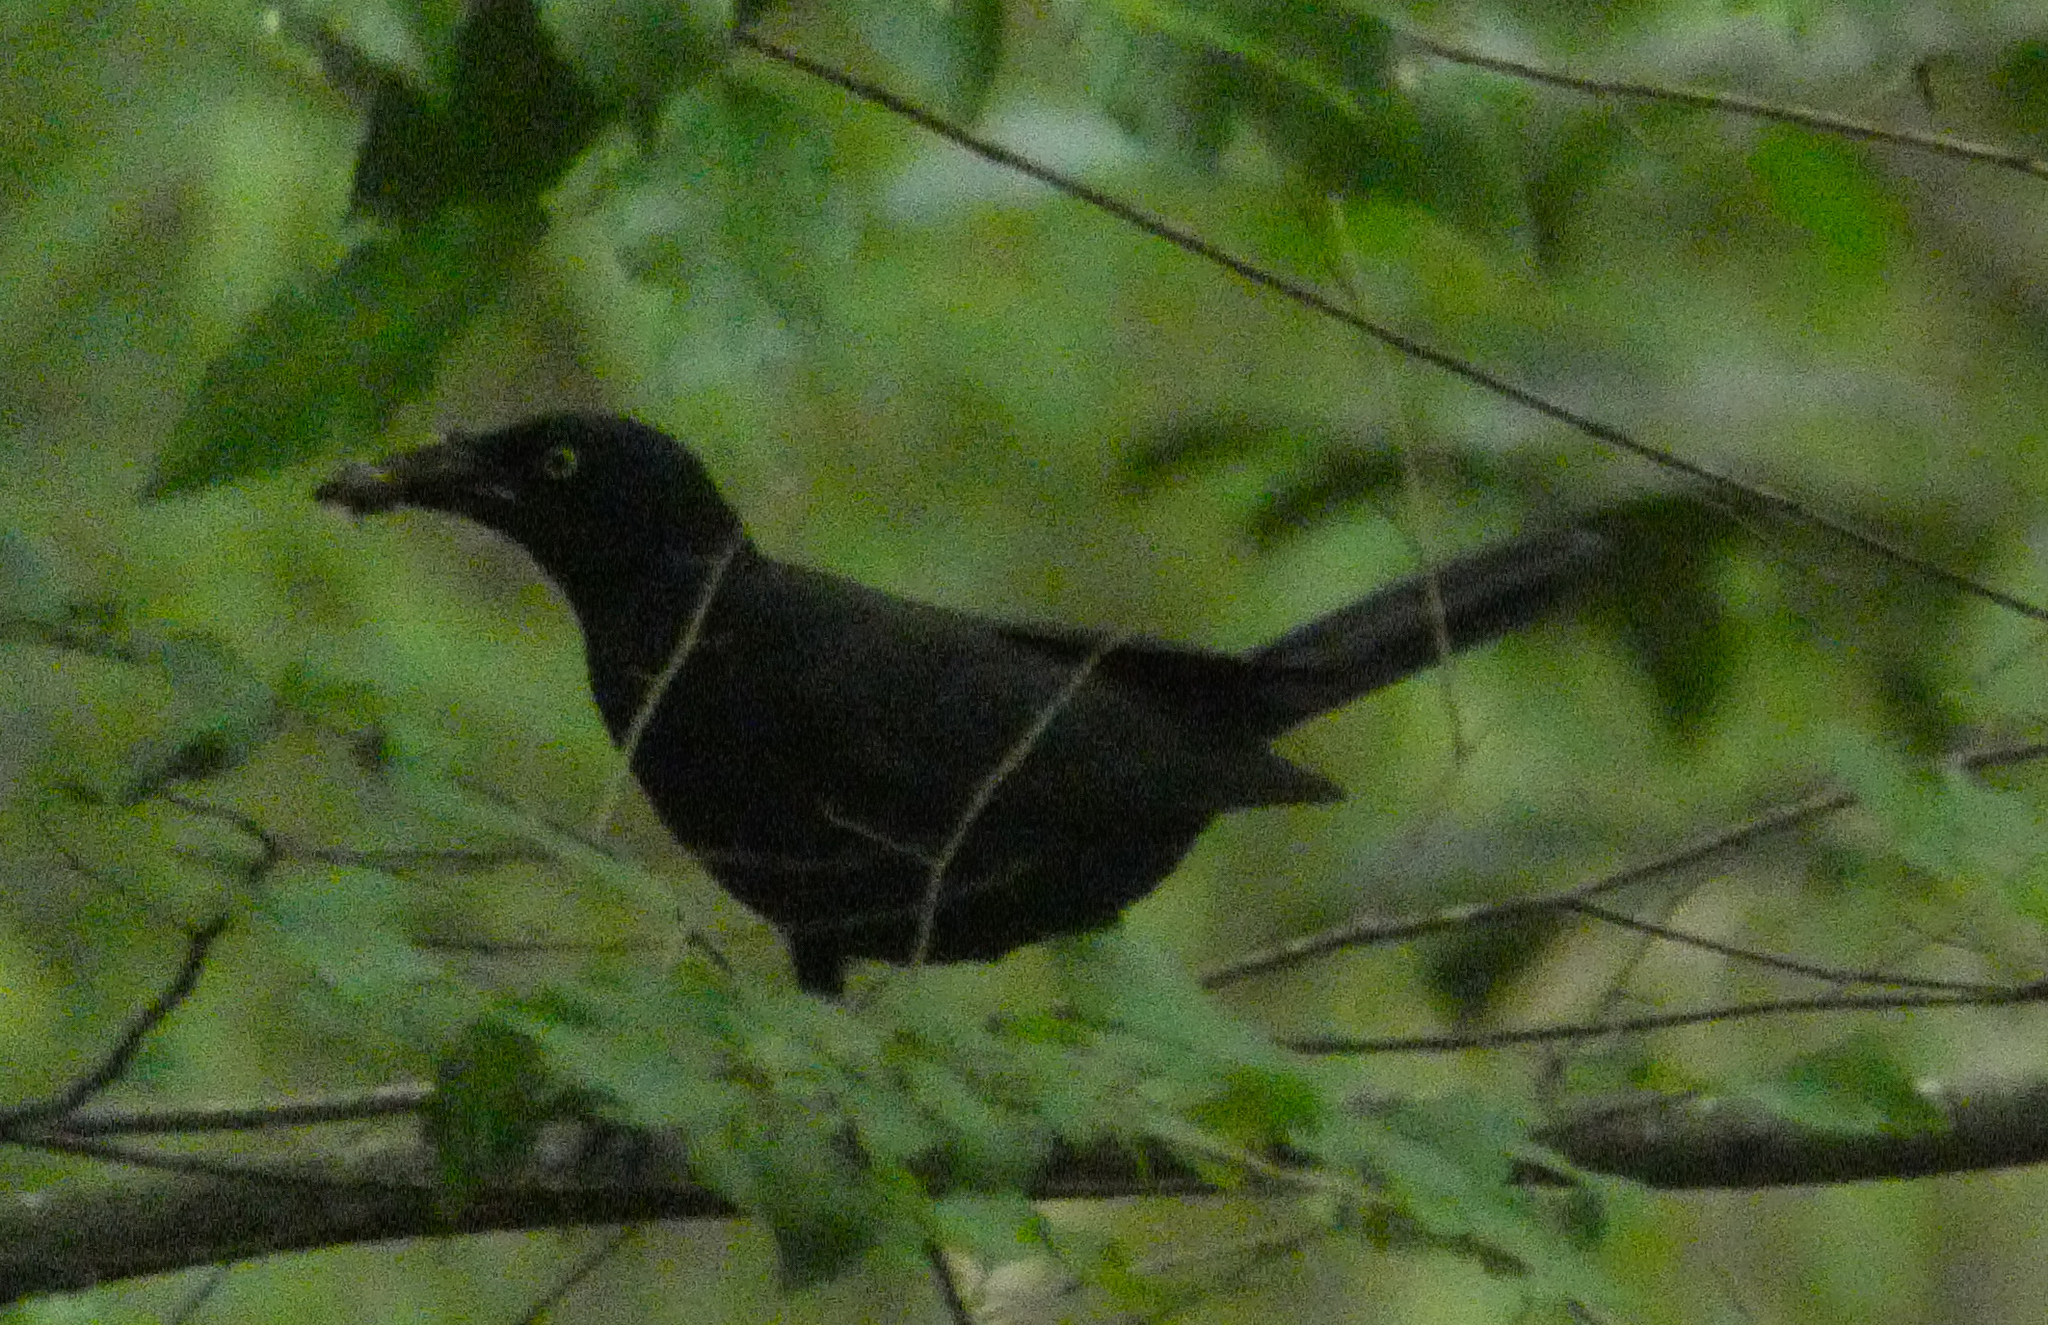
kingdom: Animalia
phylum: Chordata
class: Aves
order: Passeriformes
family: Icteridae
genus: Quiscalus
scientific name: Quiscalus quiscula
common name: Common grackle
